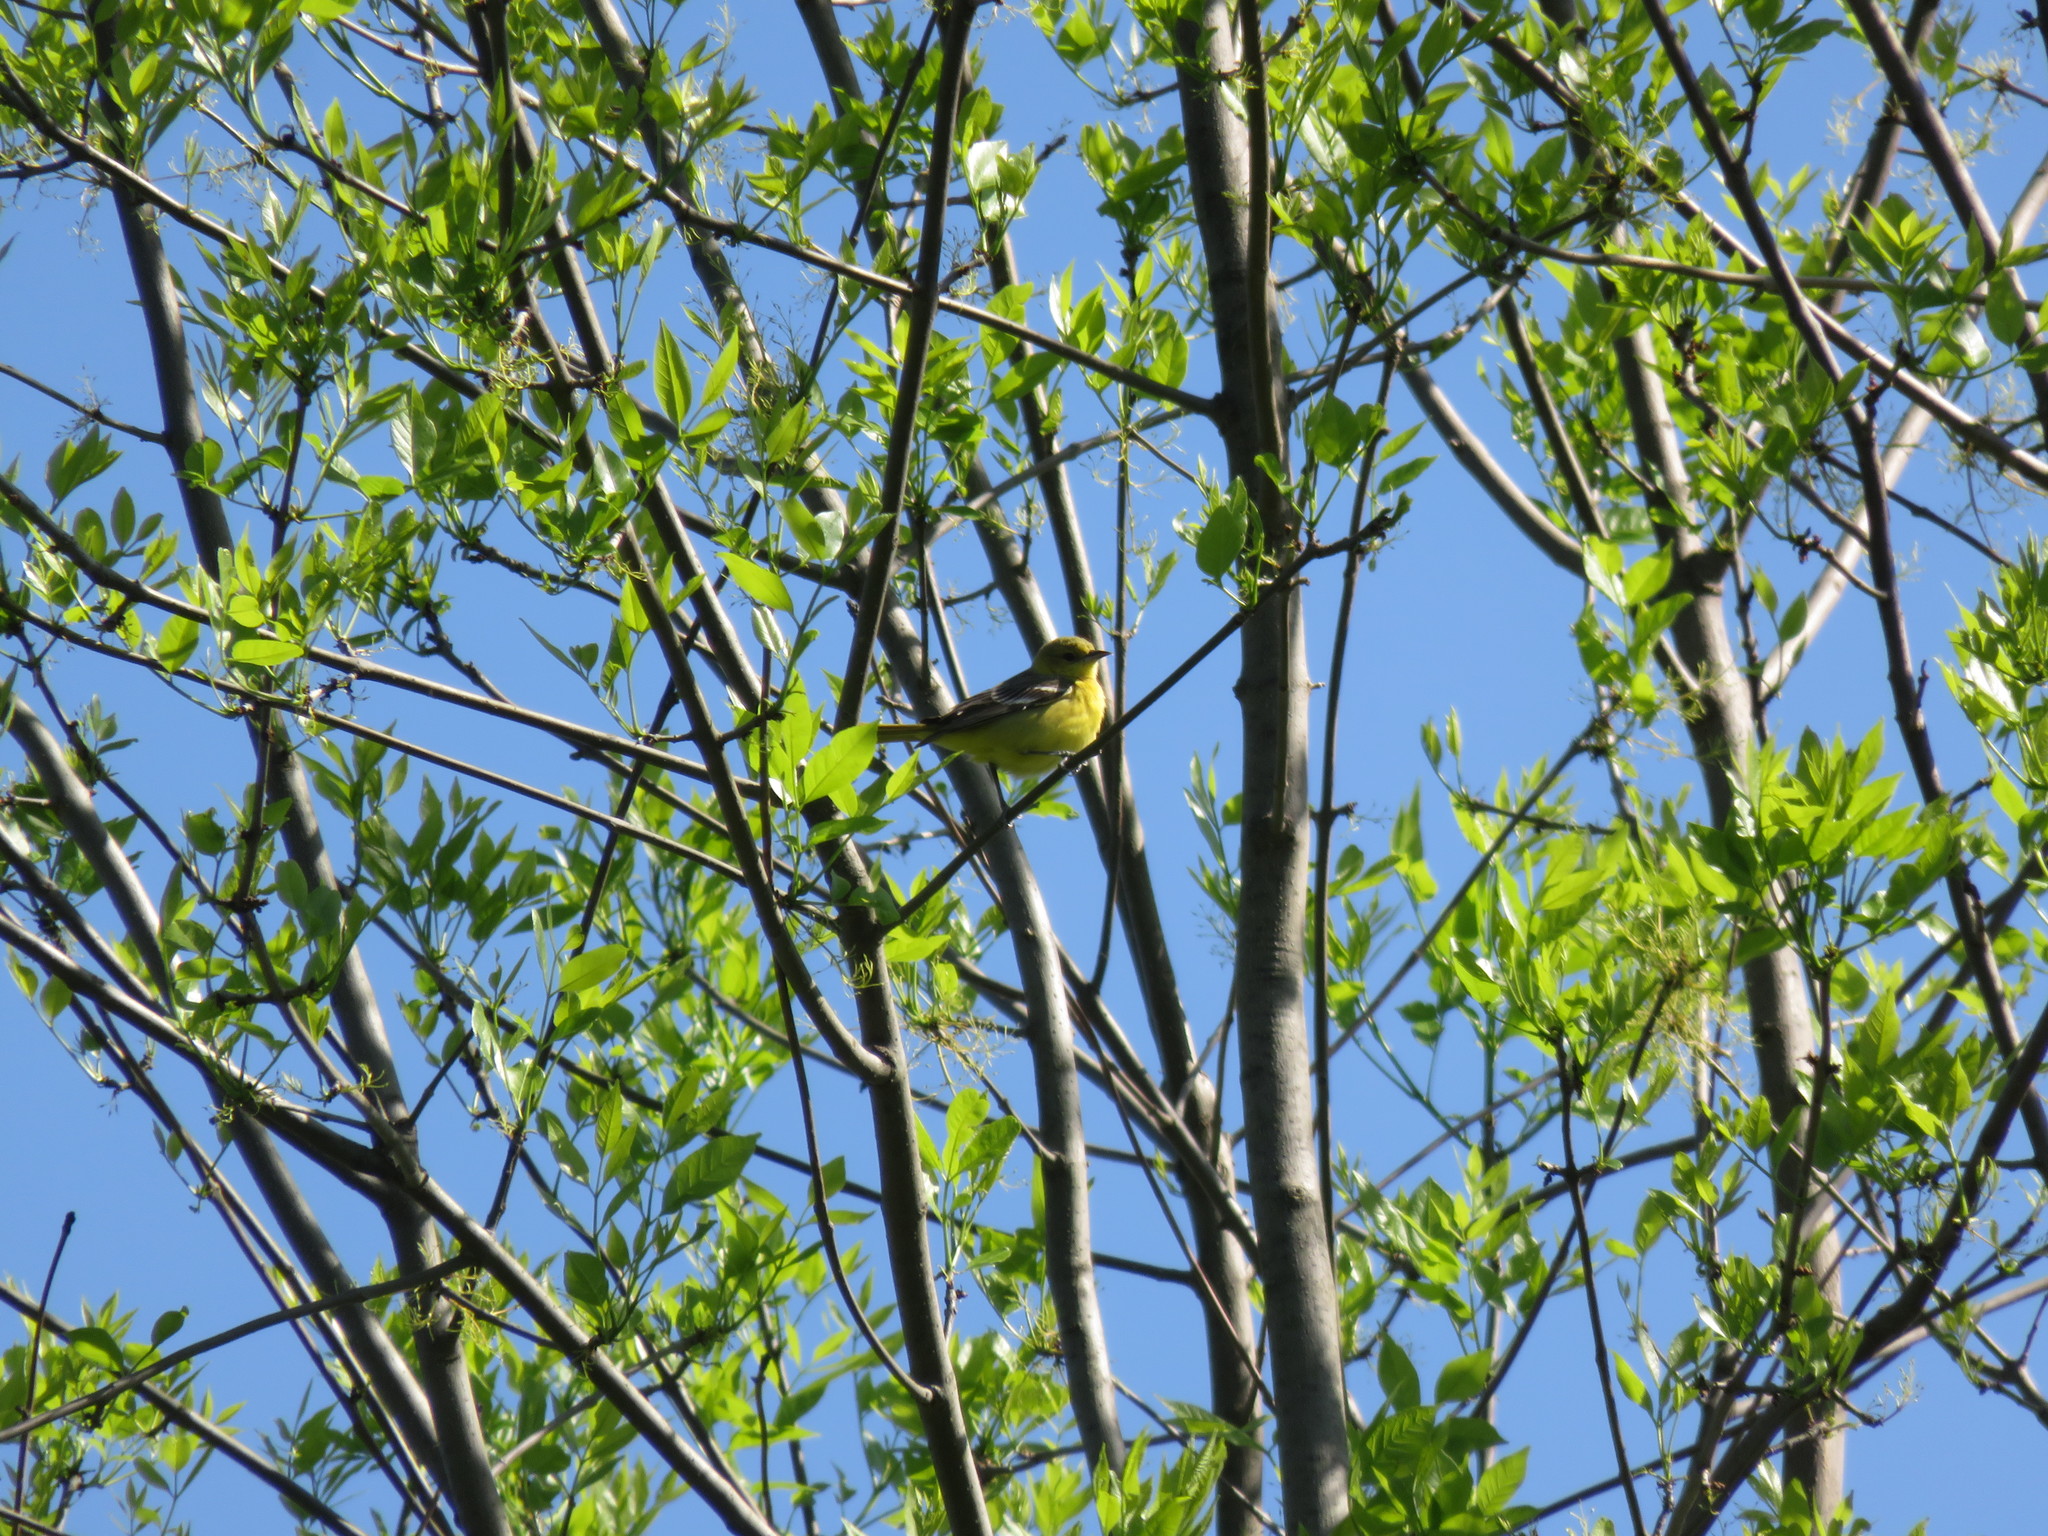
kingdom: Animalia
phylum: Chordata
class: Aves
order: Passeriformes
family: Icteridae
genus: Icterus
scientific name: Icterus spurius
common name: Orchard oriole
